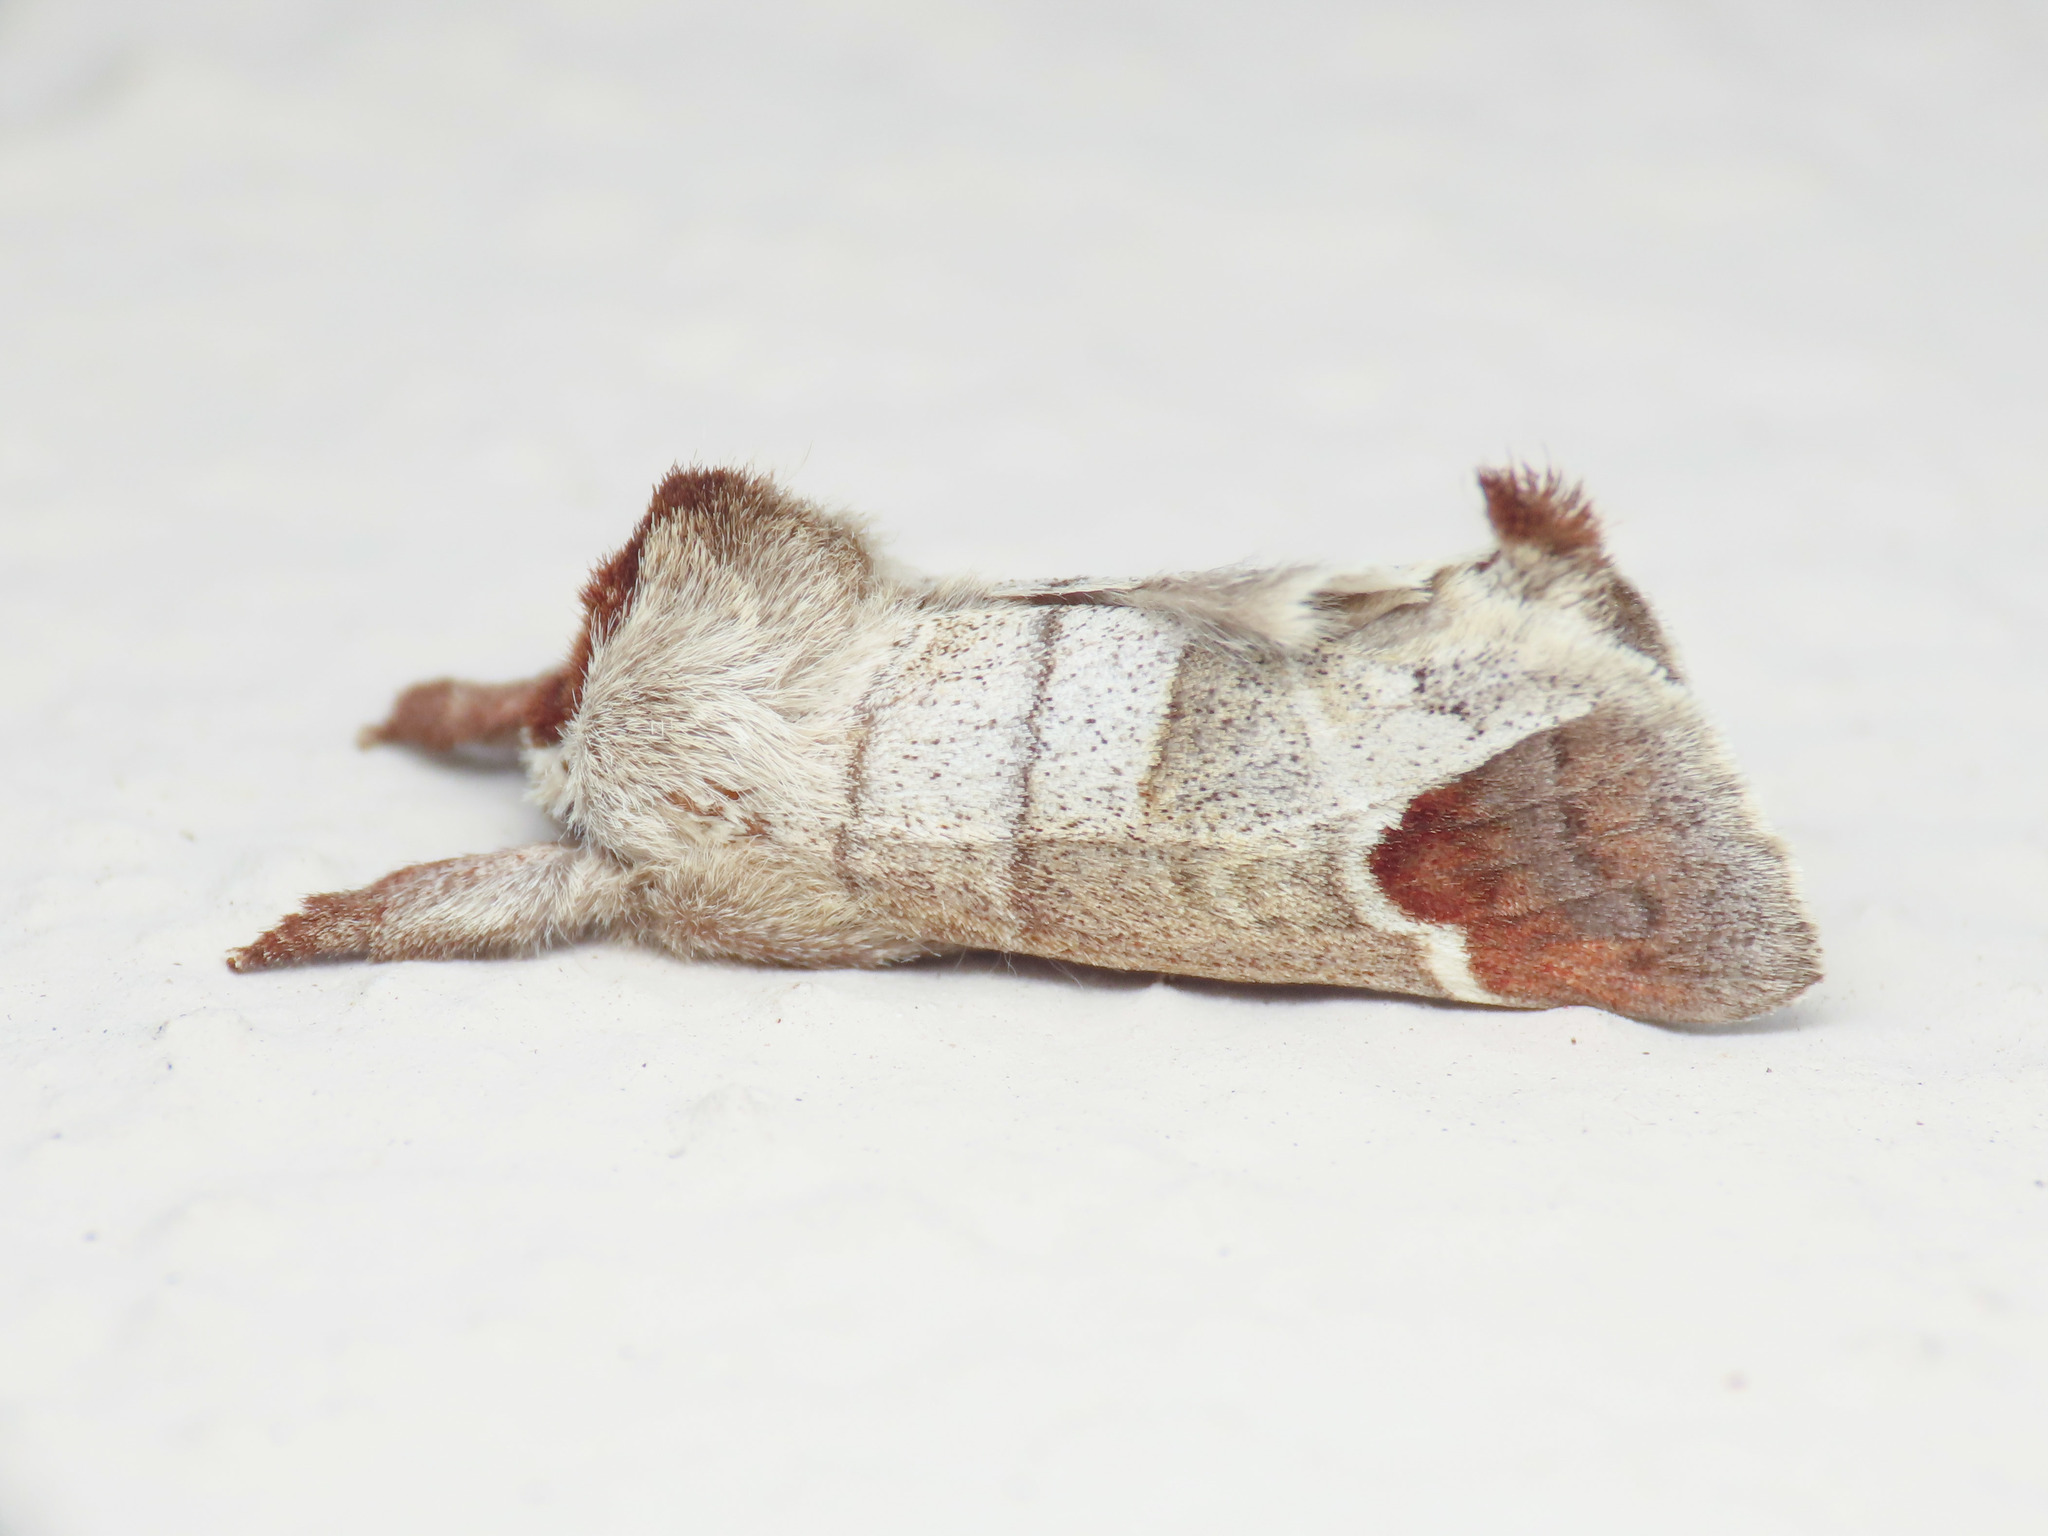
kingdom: Animalia
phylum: Arthropoda
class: Insecta
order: Lepidoptera
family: Notodontidae
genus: Clostera
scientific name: Clostera curtula
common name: Chocolate-tip
